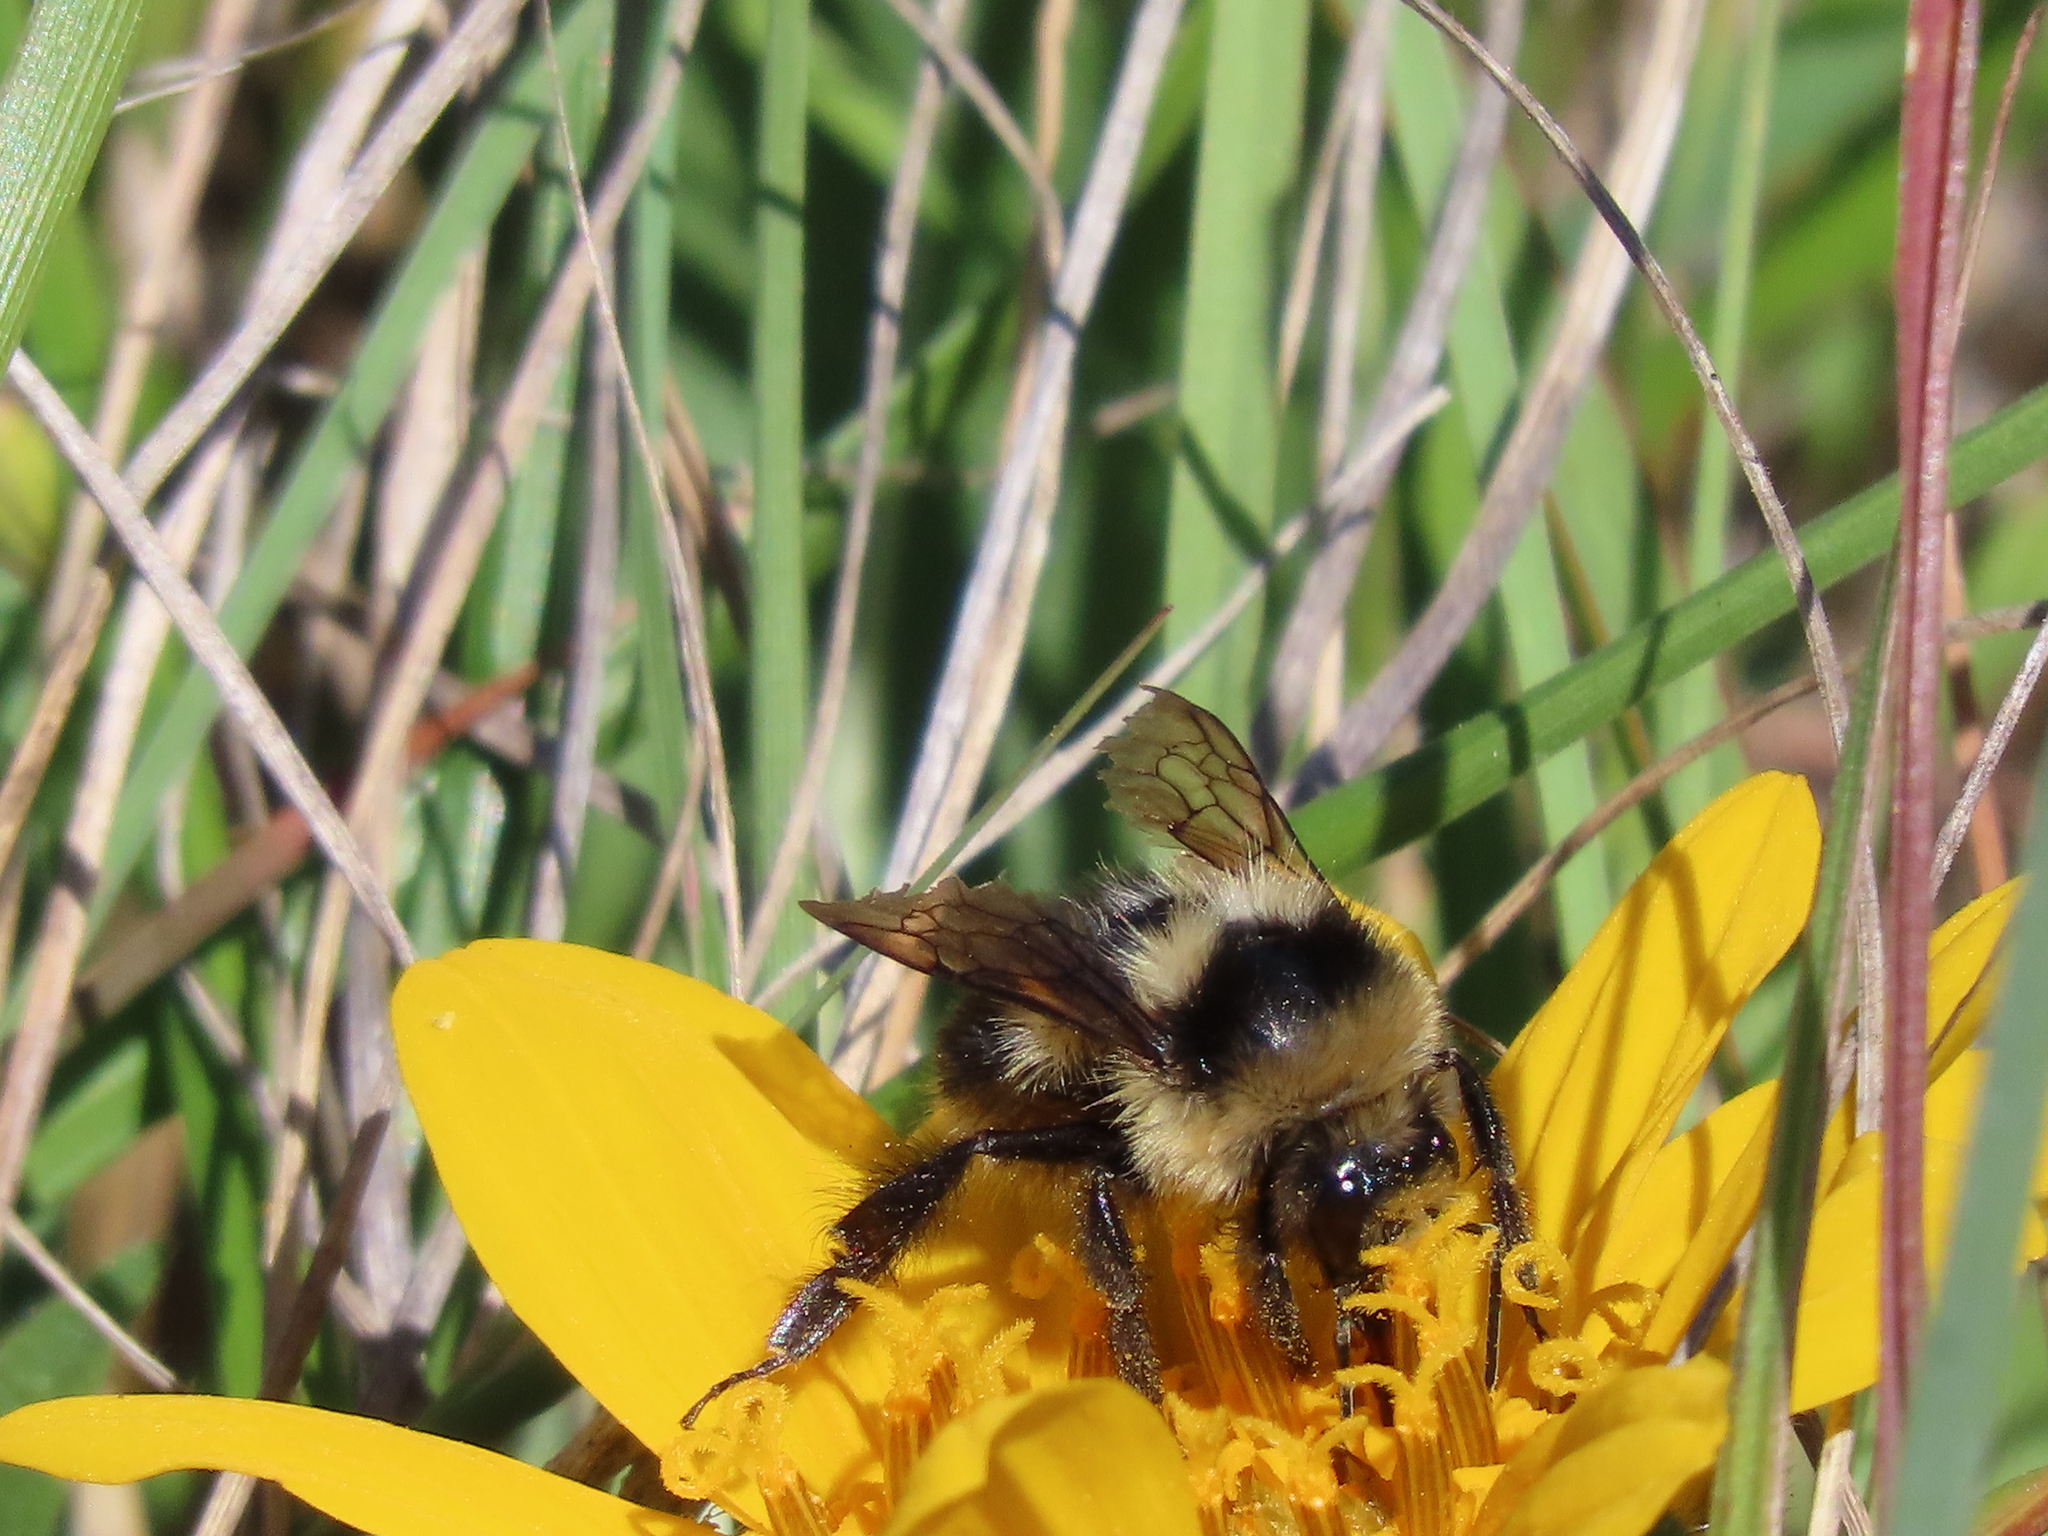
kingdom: Animalia
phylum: Arthropoda
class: Insecta
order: Hymenoptera
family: Apidae
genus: Bombus
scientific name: Bombus melanopygus
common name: Black tail bumble bee
